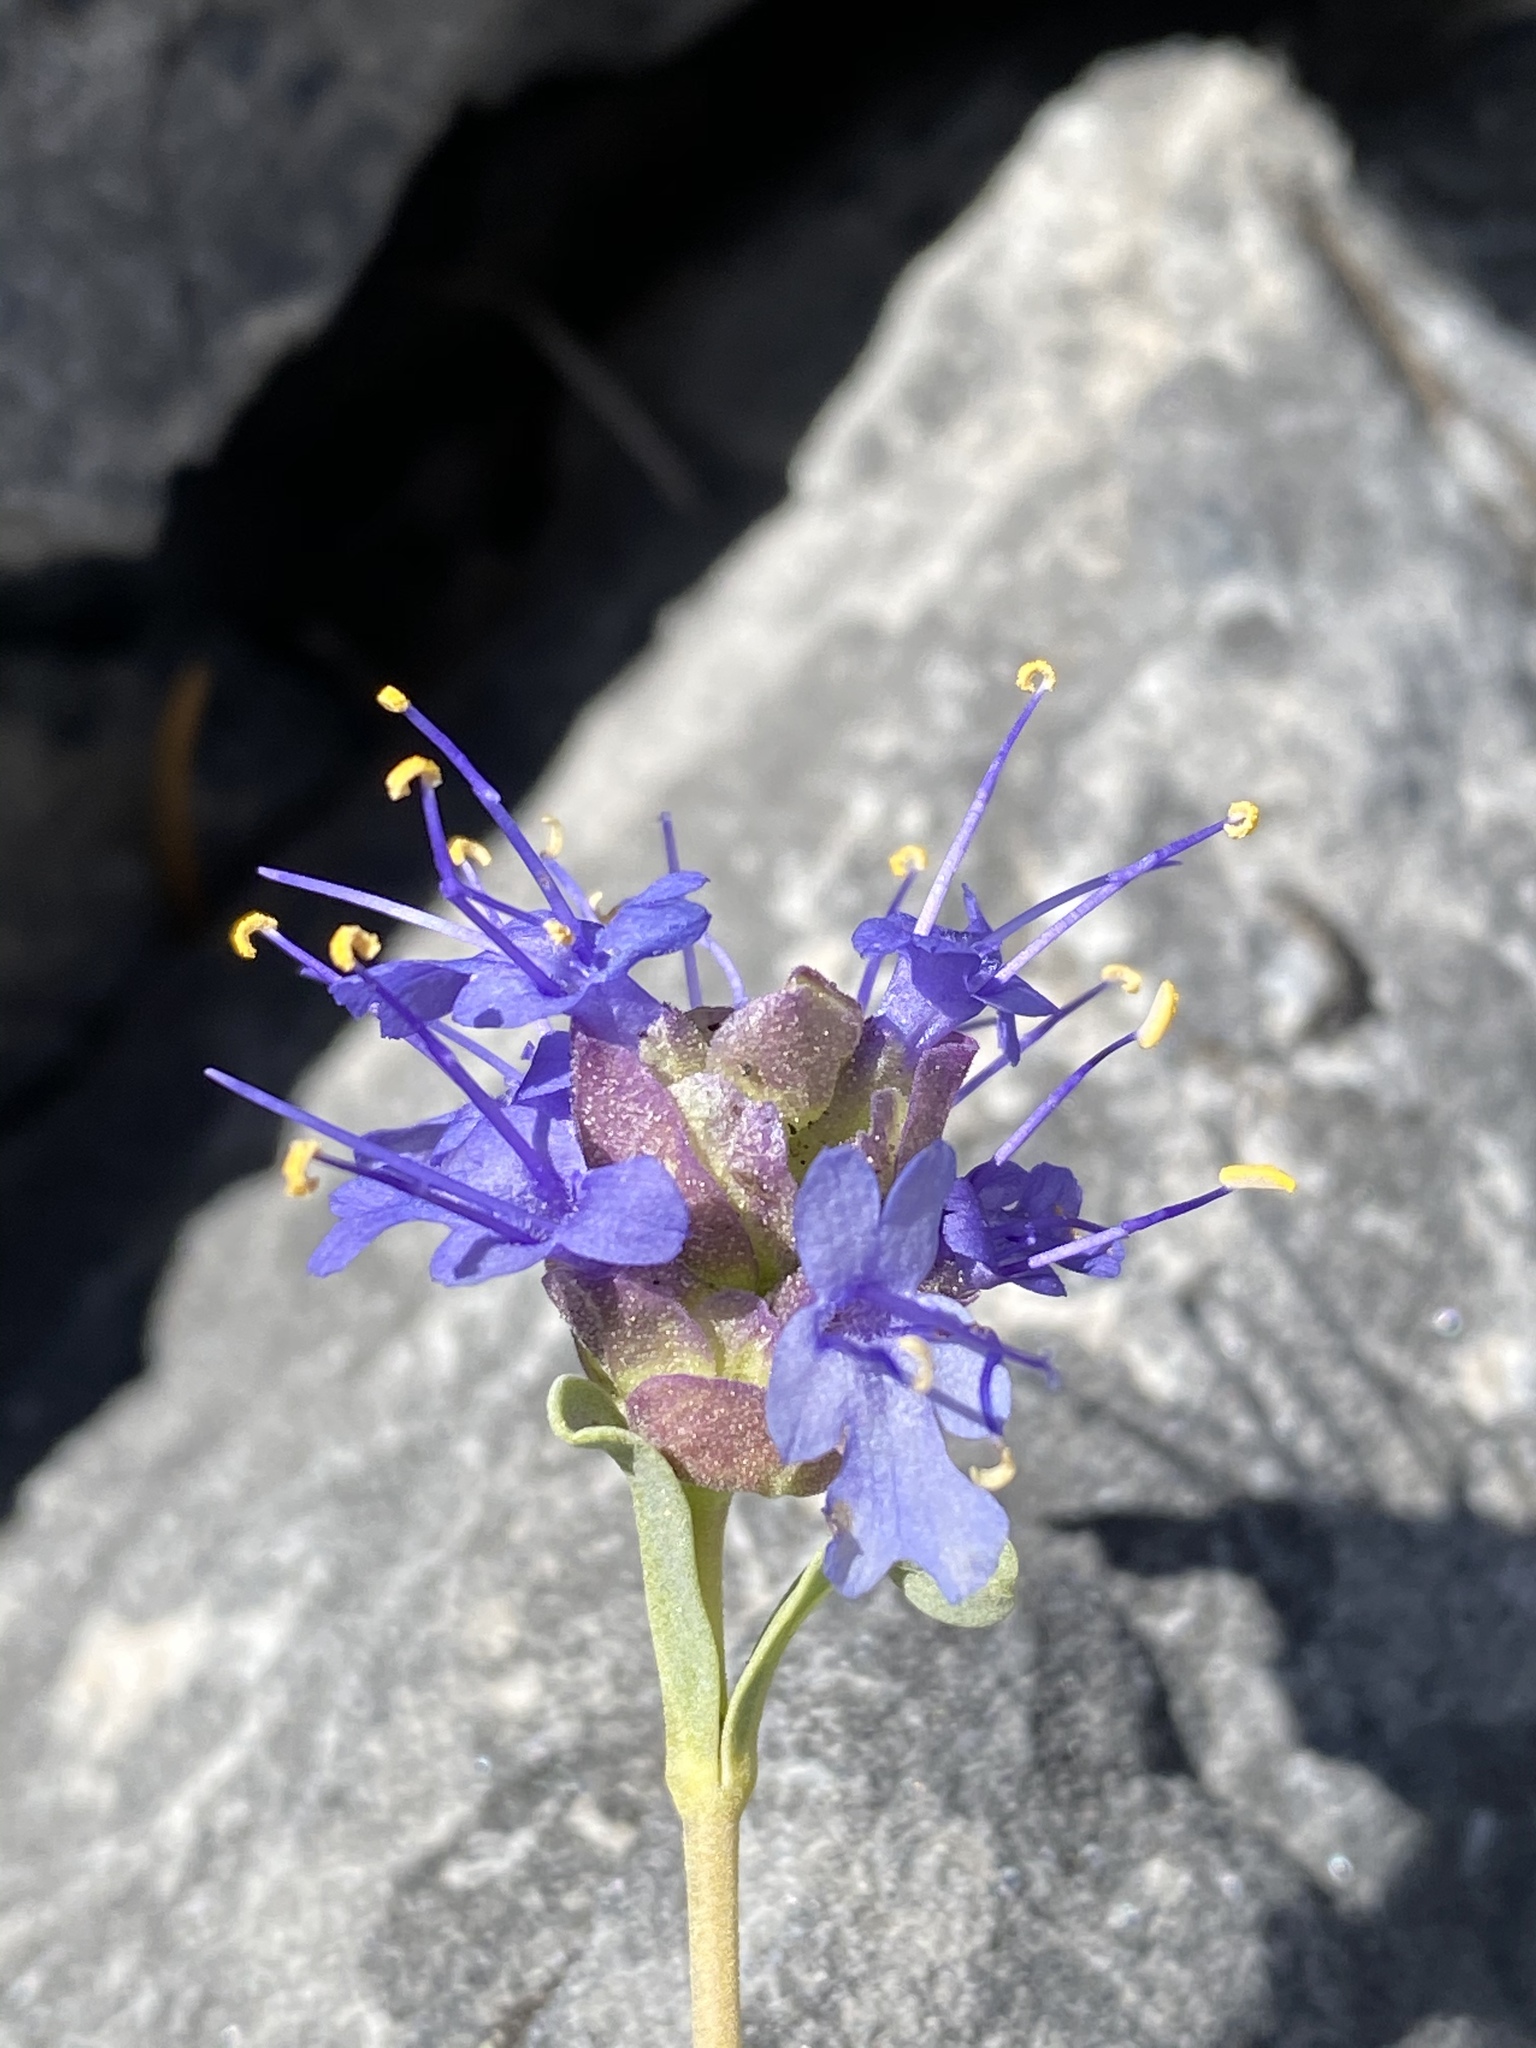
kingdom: Plantae
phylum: Tracheophyta
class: Magnoliopsida
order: Lamiales
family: Lamiaceae
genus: Salvia
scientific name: Salvia dorrii
